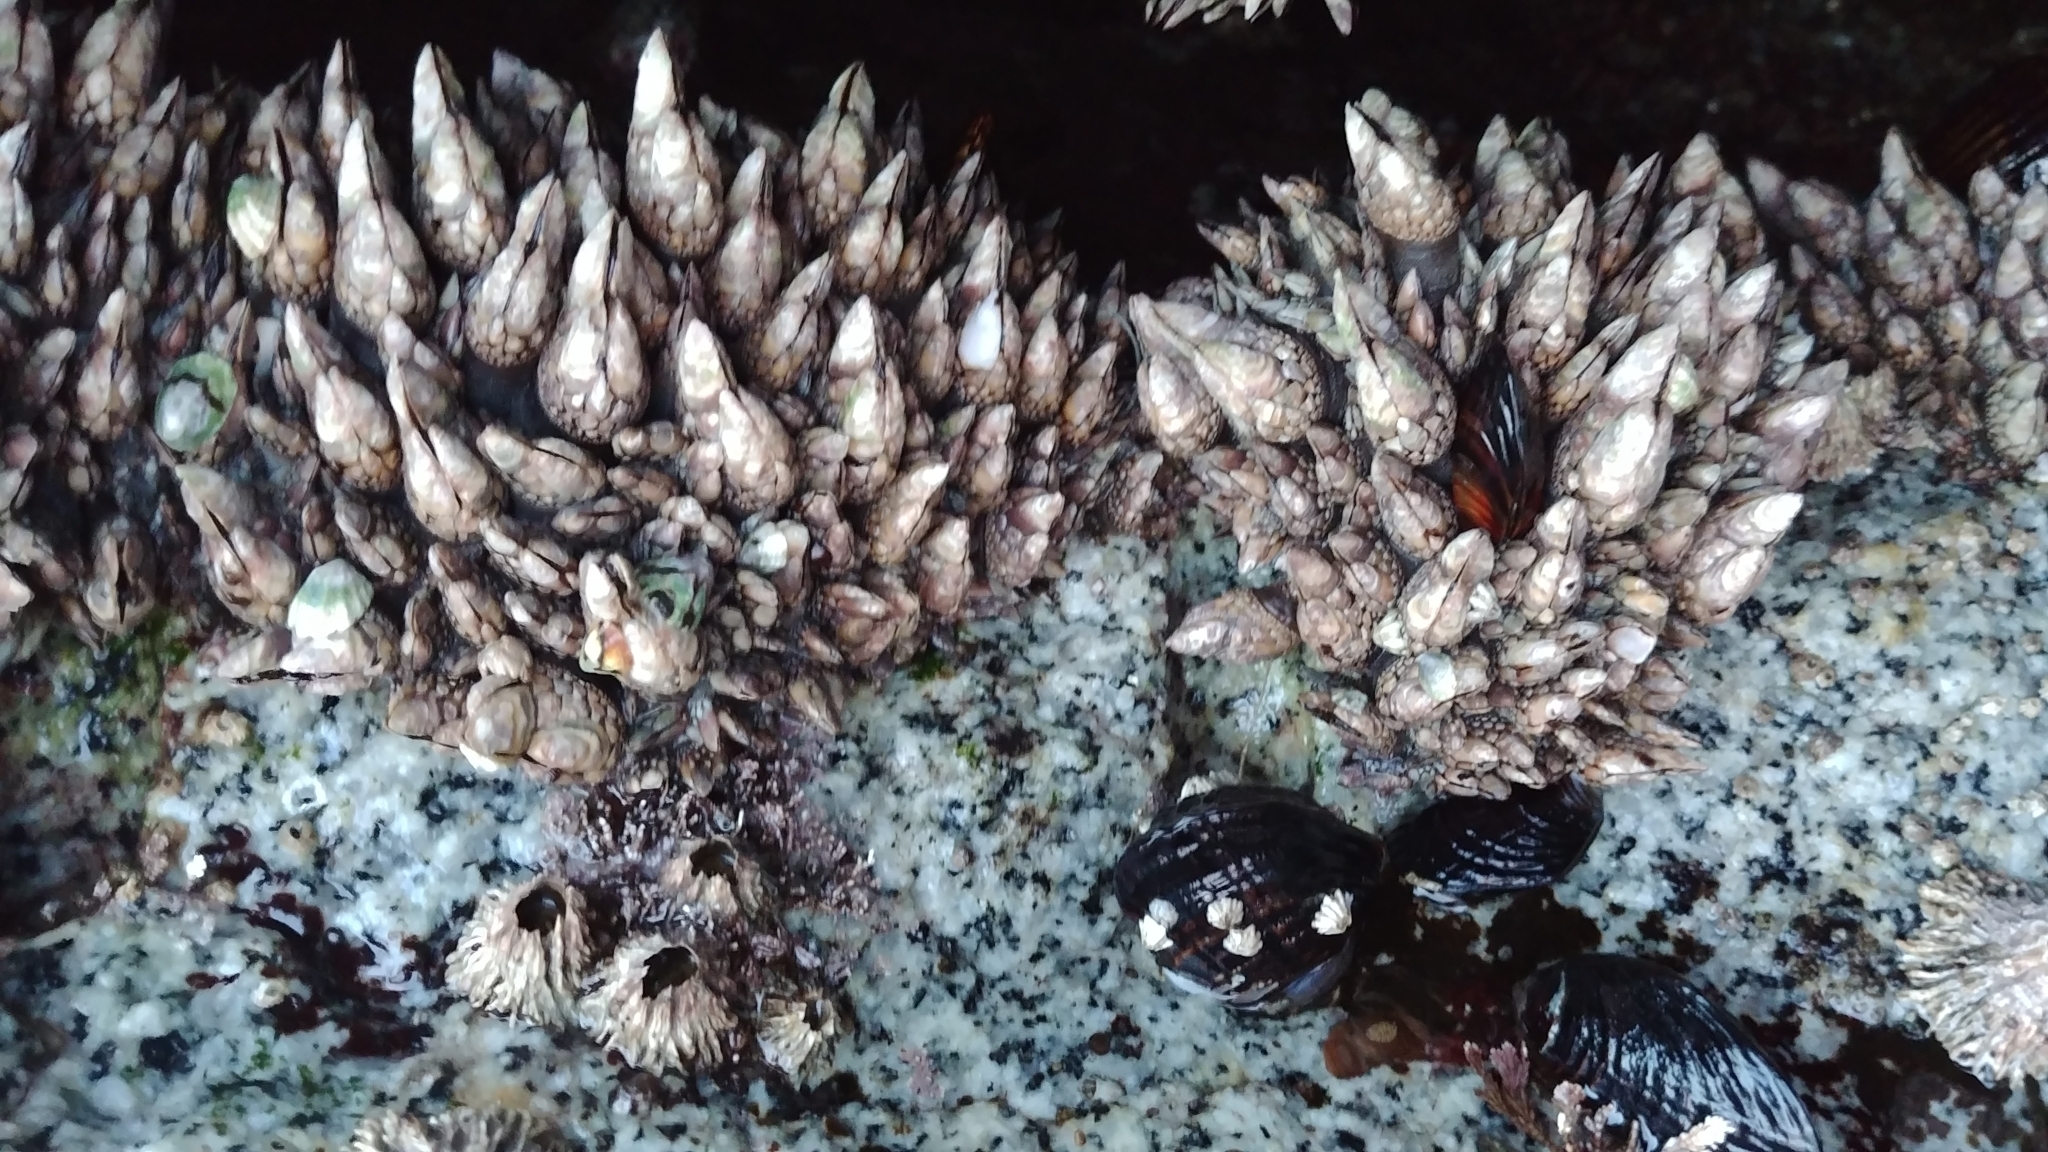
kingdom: Animalia
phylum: Arthropoda
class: Maxillopoda
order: Pedunculata
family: Pollicipedidae
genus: Pollicipes
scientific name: Pollicipes polymerus
